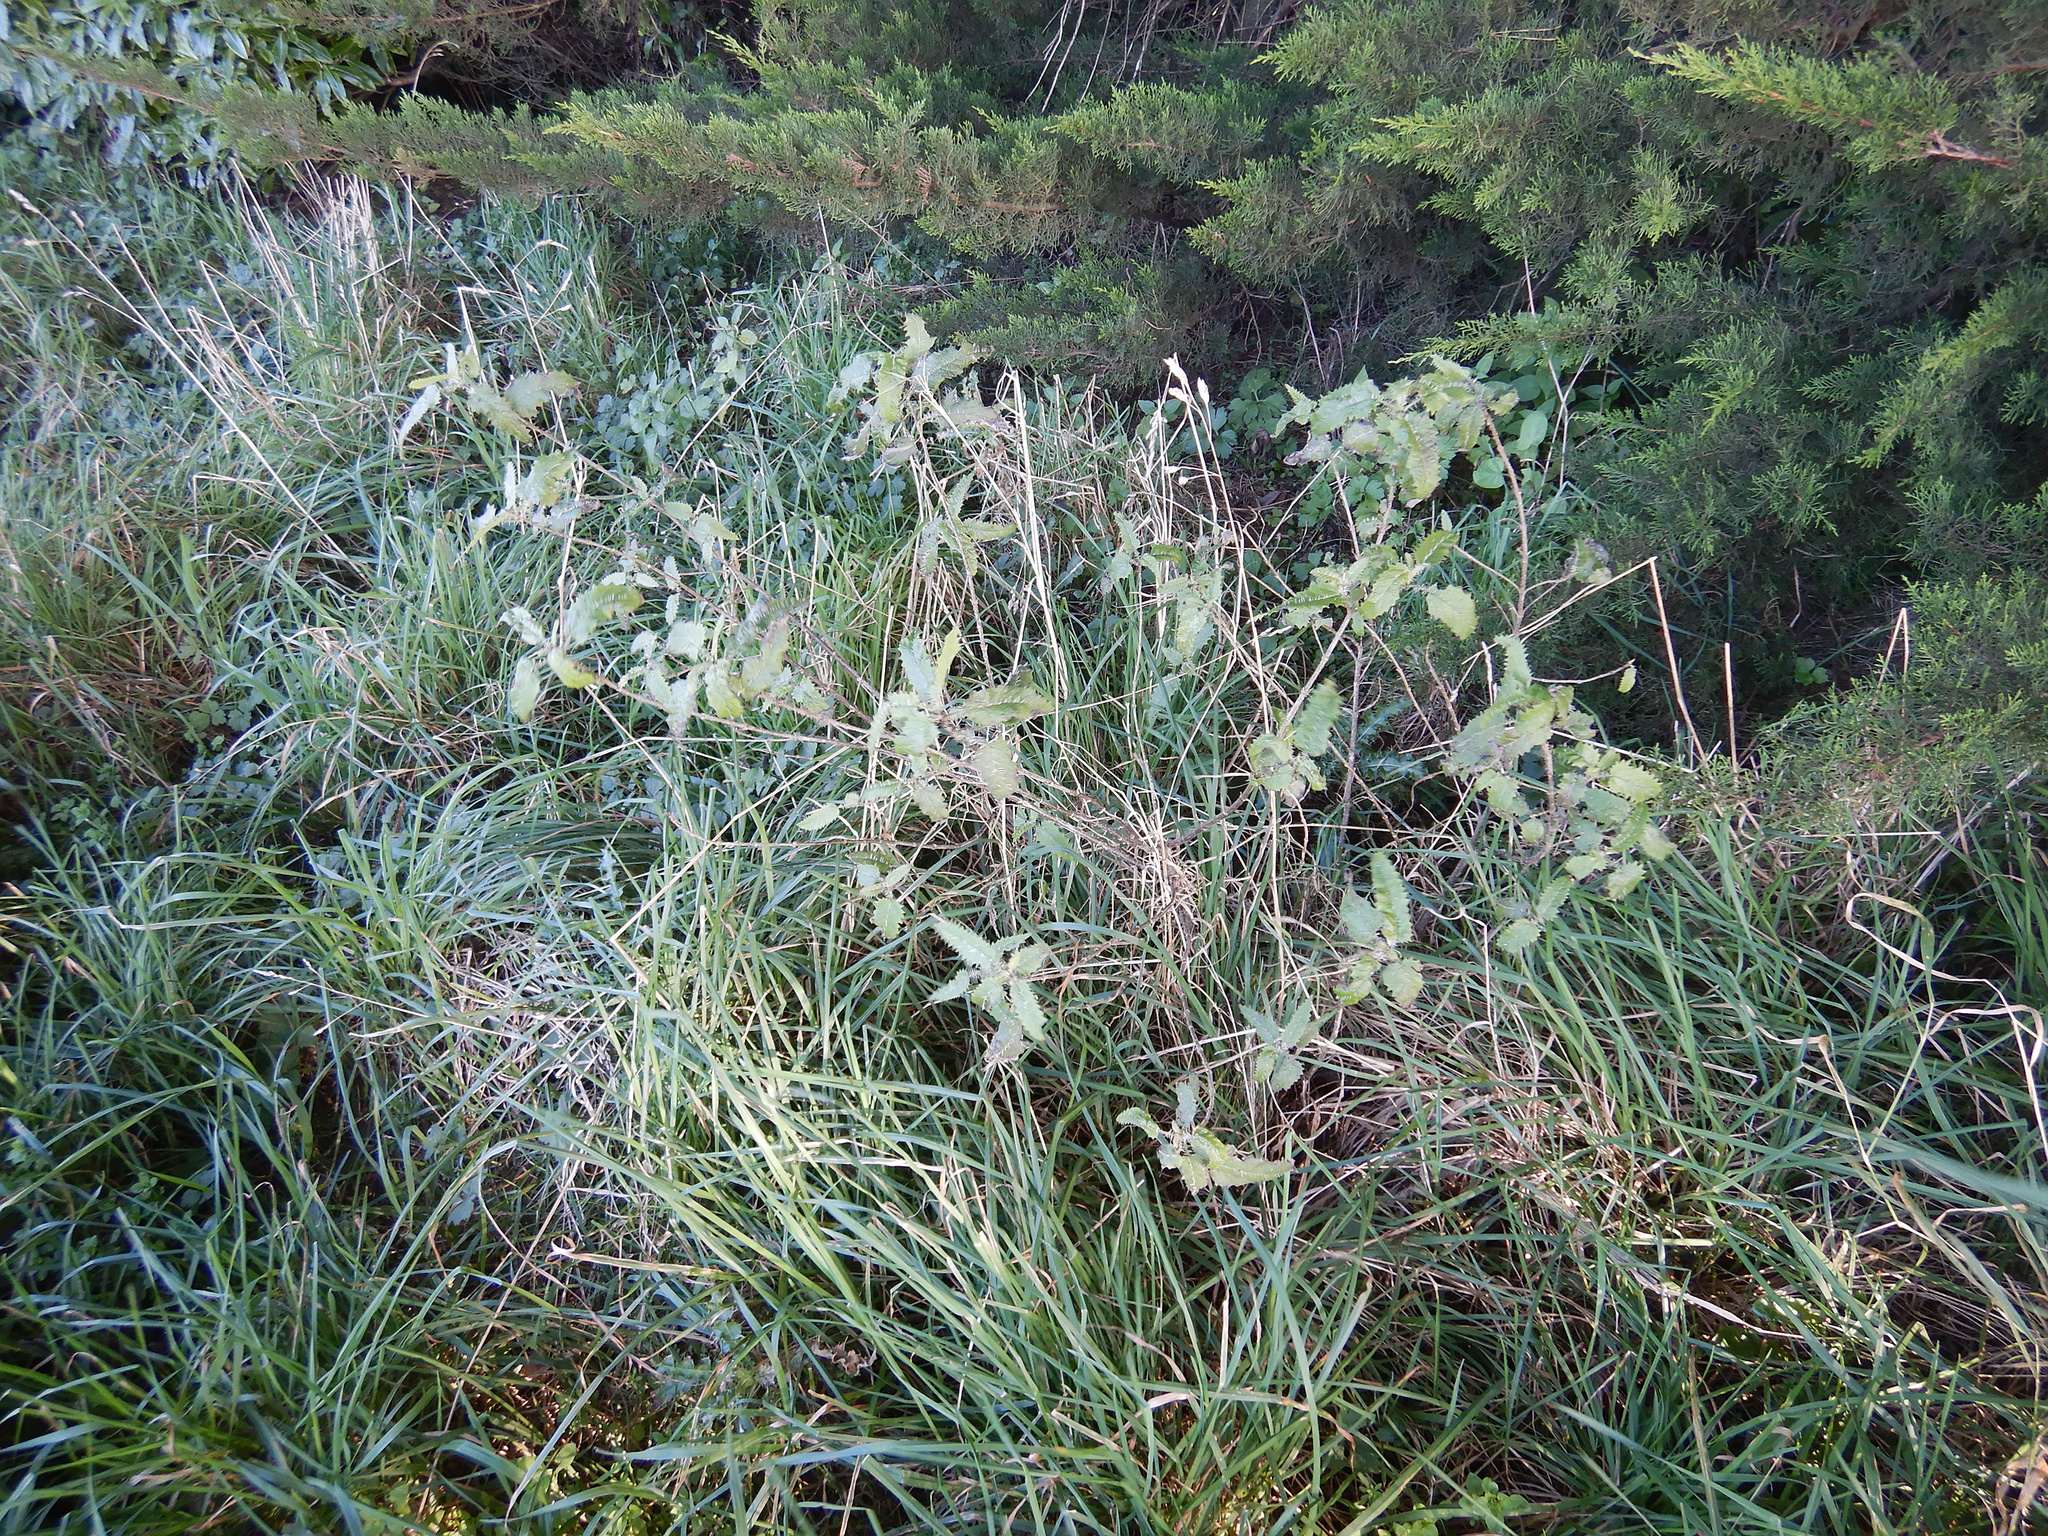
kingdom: Plantae
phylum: Tracheophyta
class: Magnoliopsida
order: Rosales
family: Urticaceae
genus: Urtica
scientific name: Urtica ferox
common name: Tree nettle
